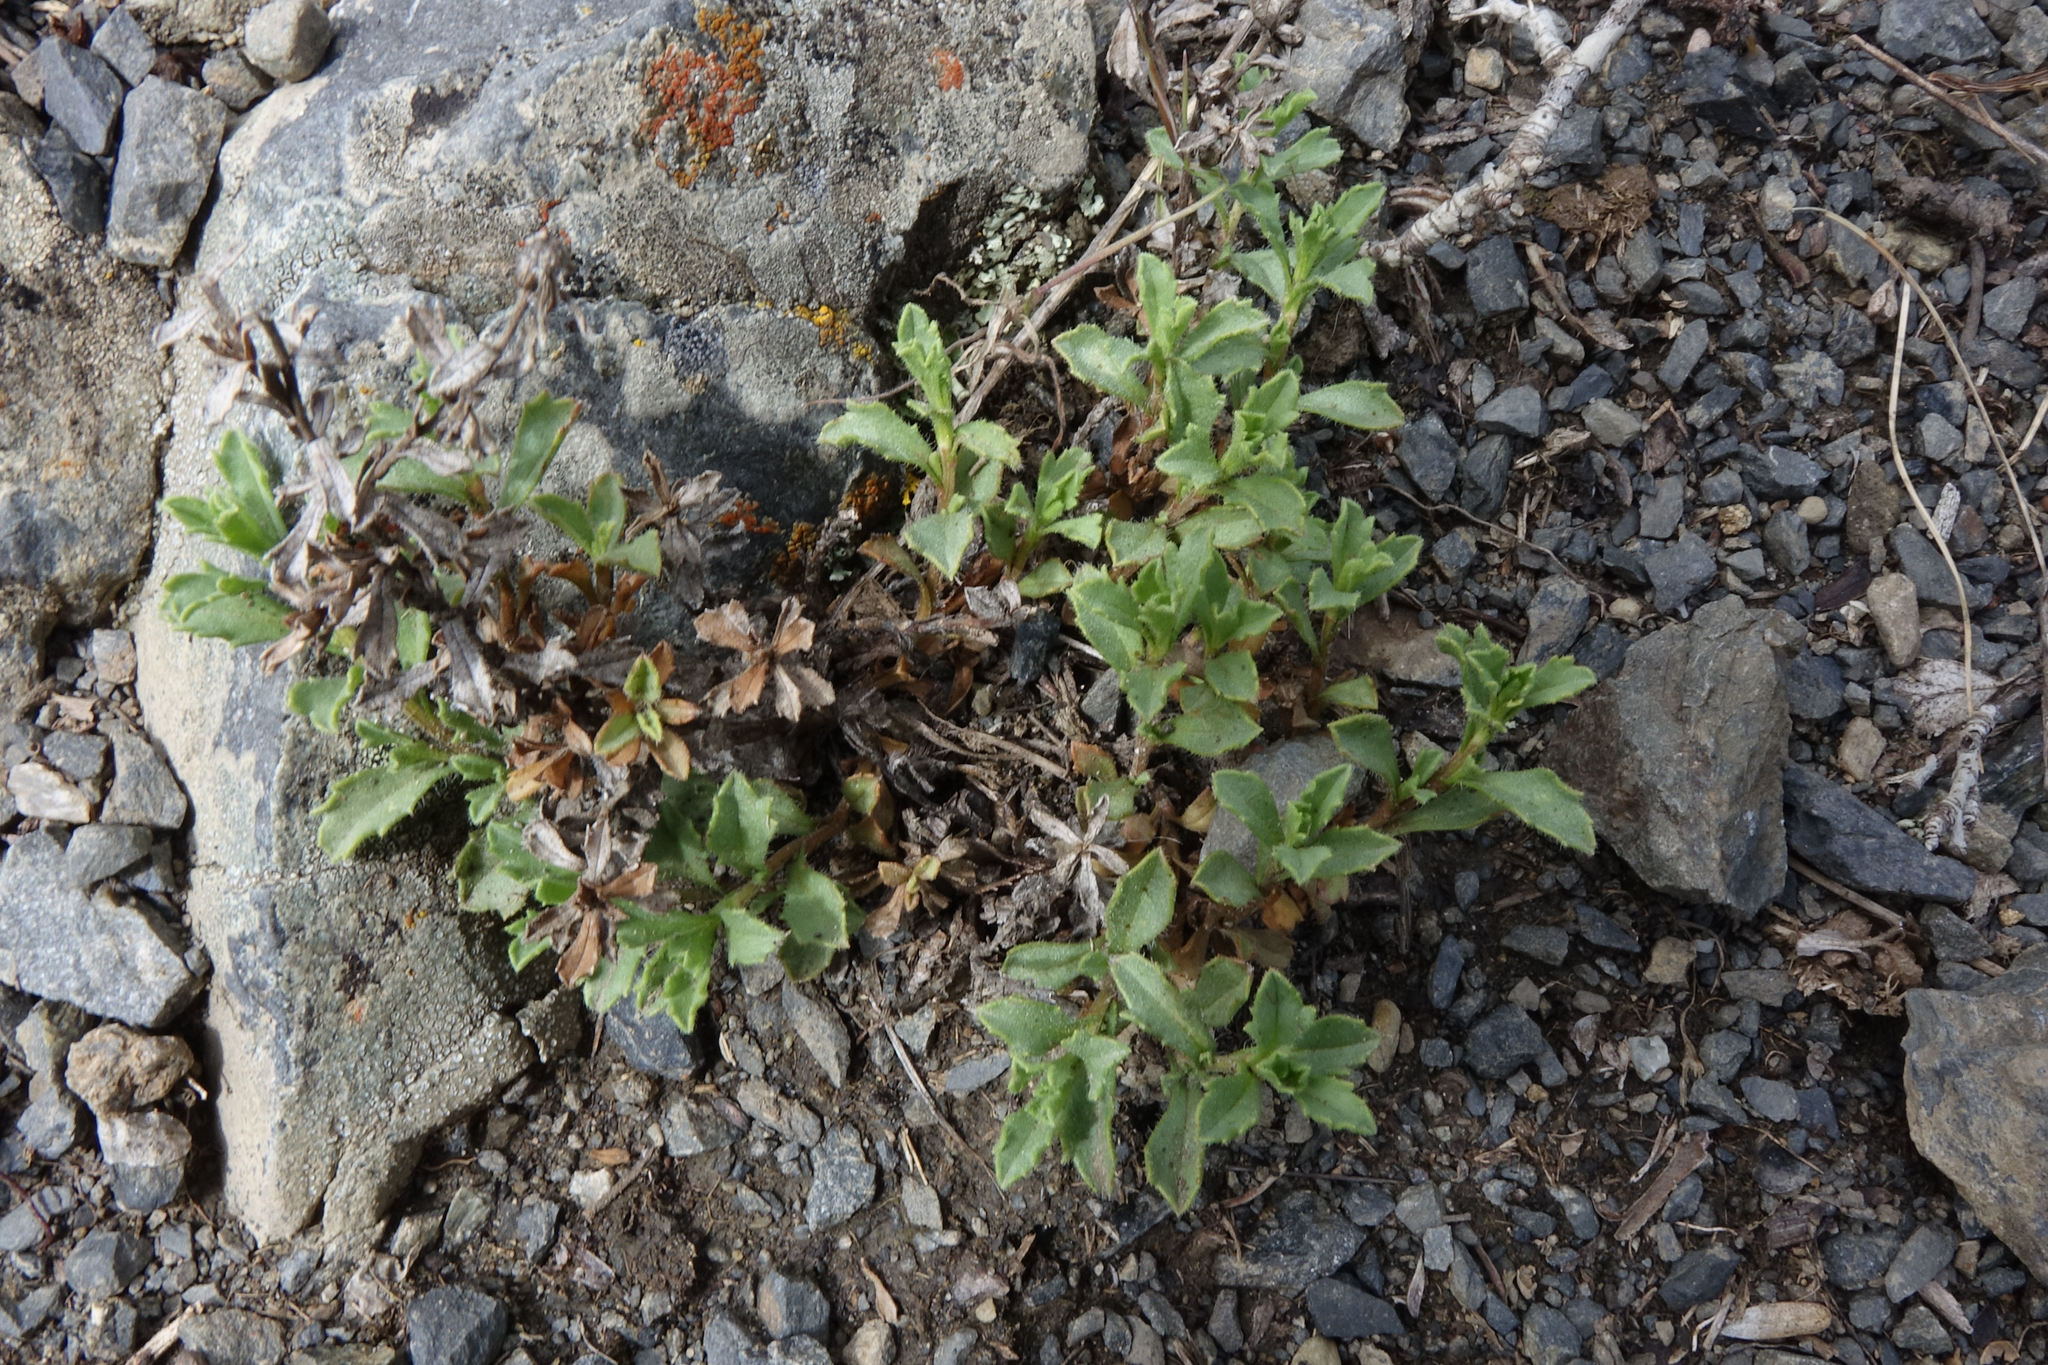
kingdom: Plantae
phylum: Tracheophyta
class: Magnoliopsida
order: Asterales
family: Asteraceae
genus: Vittadinia
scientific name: Vittadinia australis
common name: White fuzzweed
